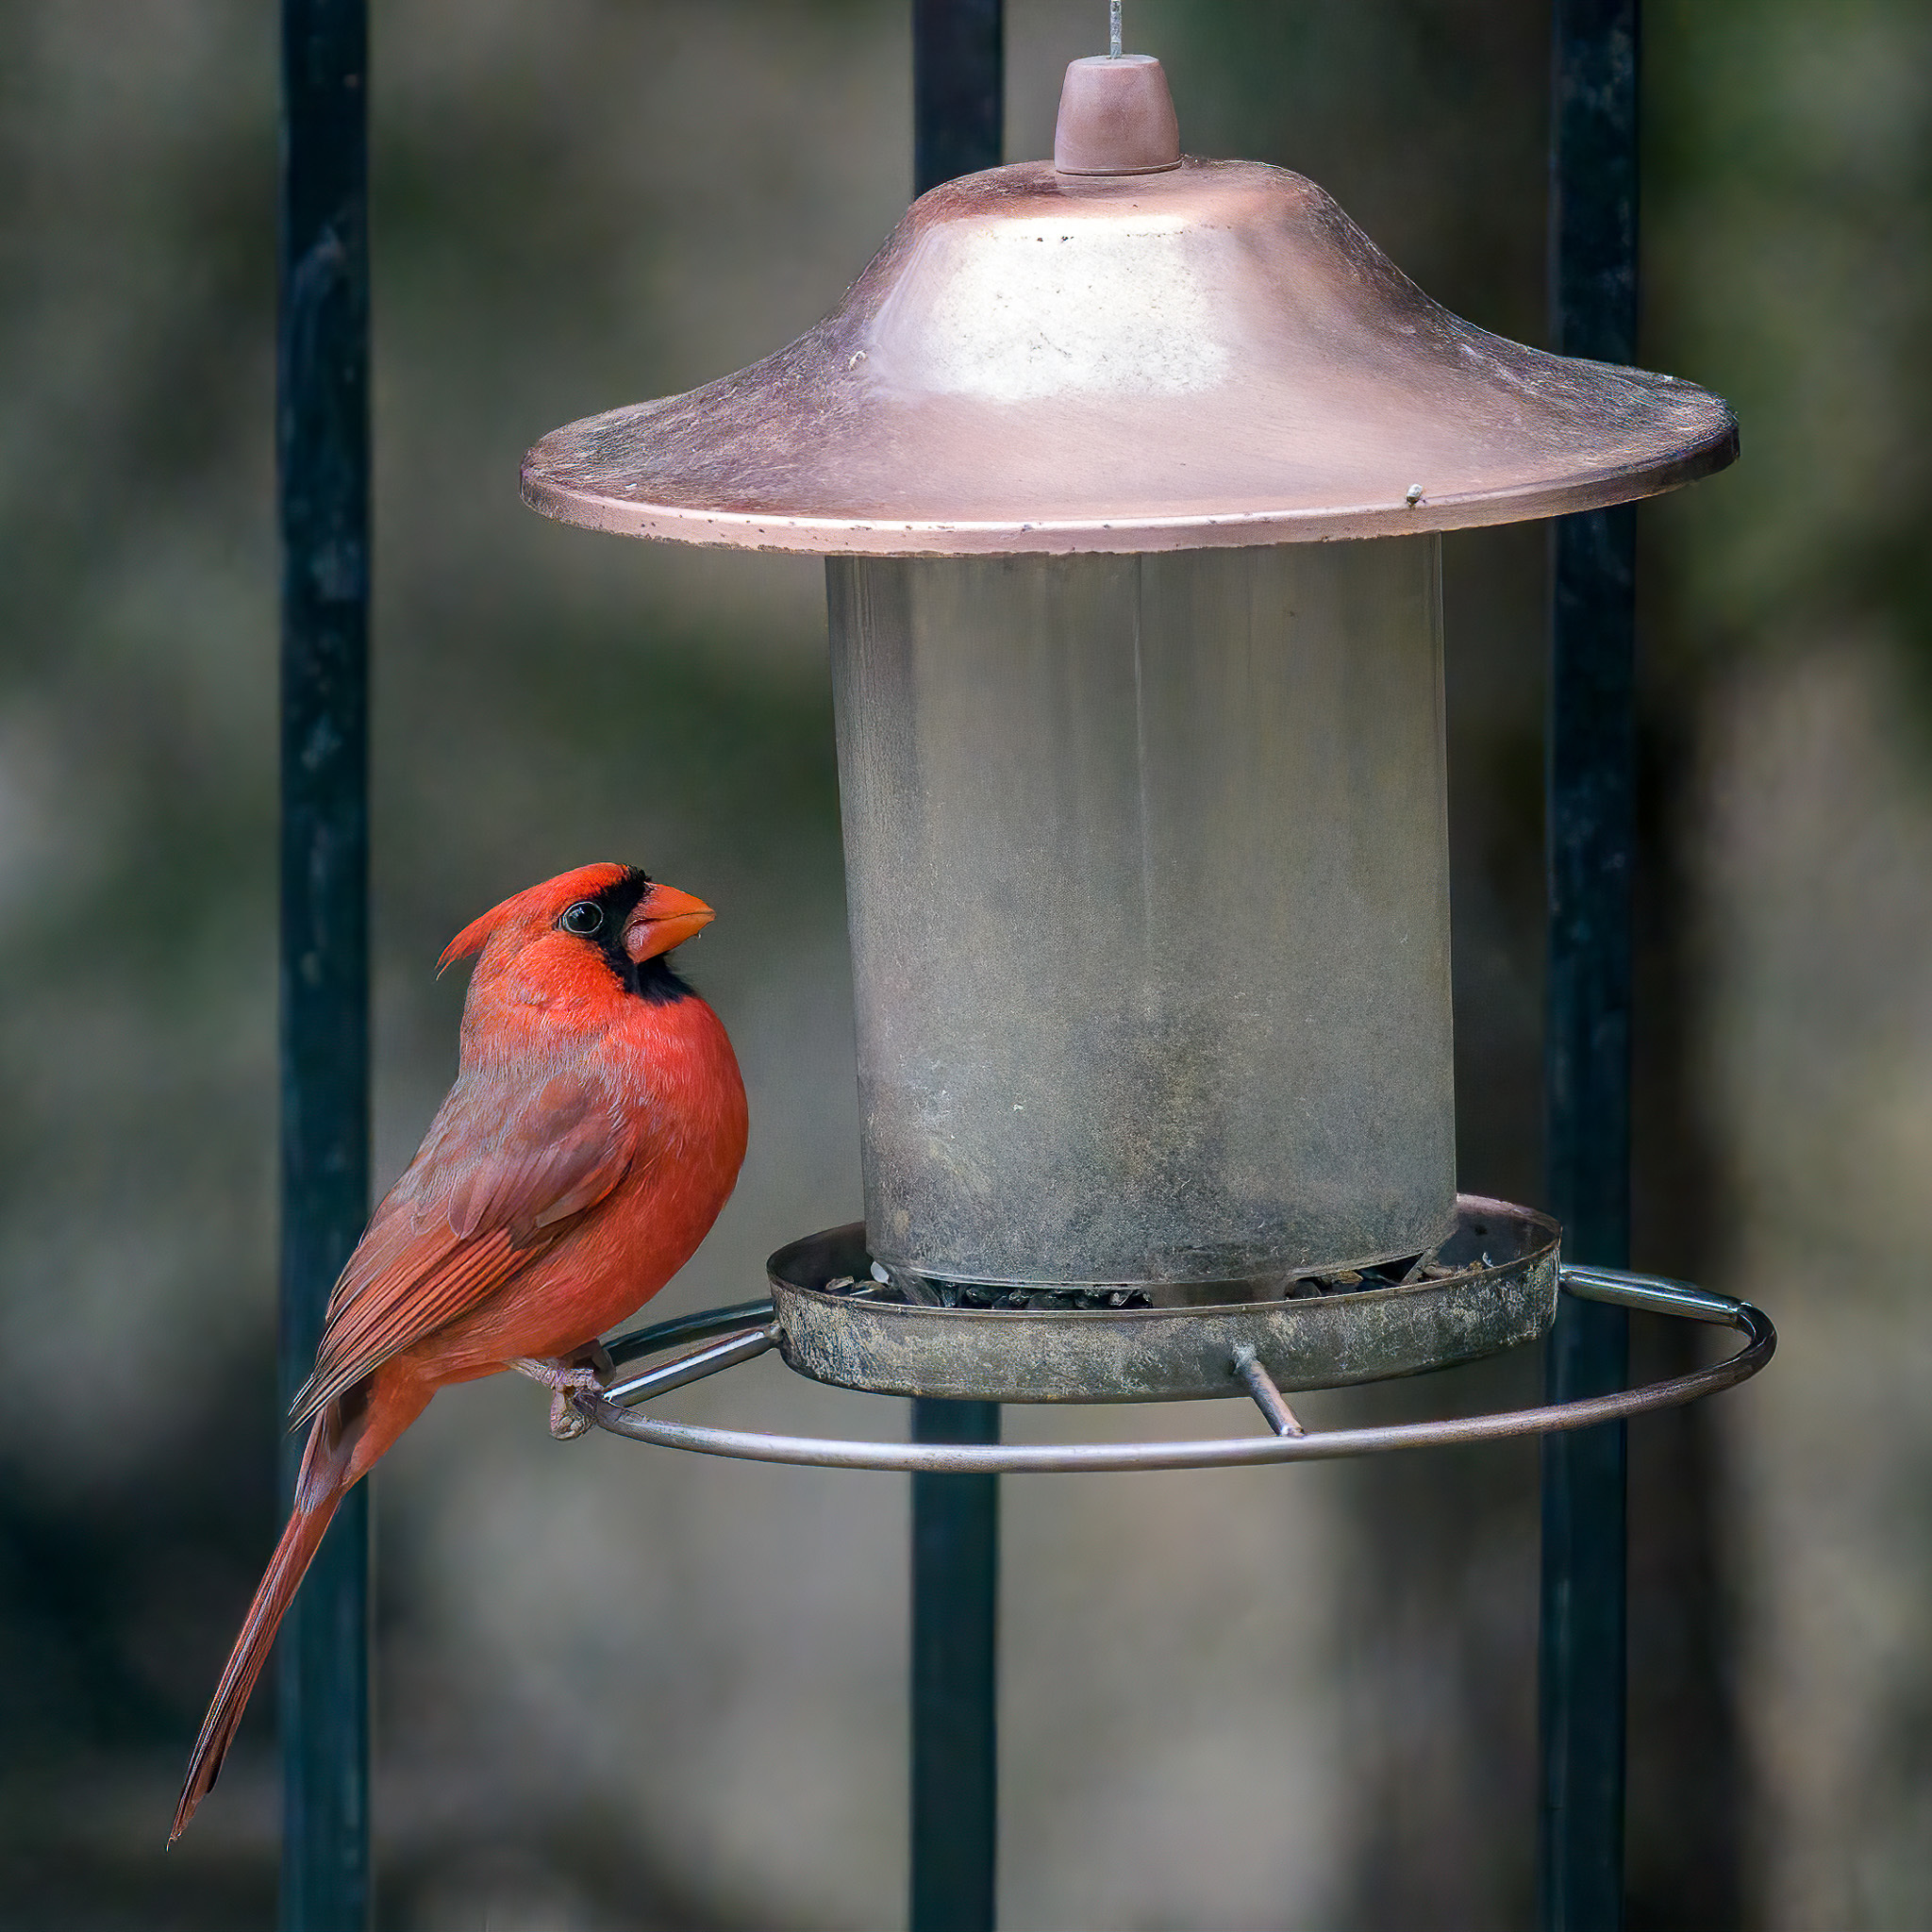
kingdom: Animalia
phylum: Chordata
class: Aves
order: Passeriformes
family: Cardinalidae
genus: Cardinalis
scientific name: Cardinalis cardinalis
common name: Northern cardinal
